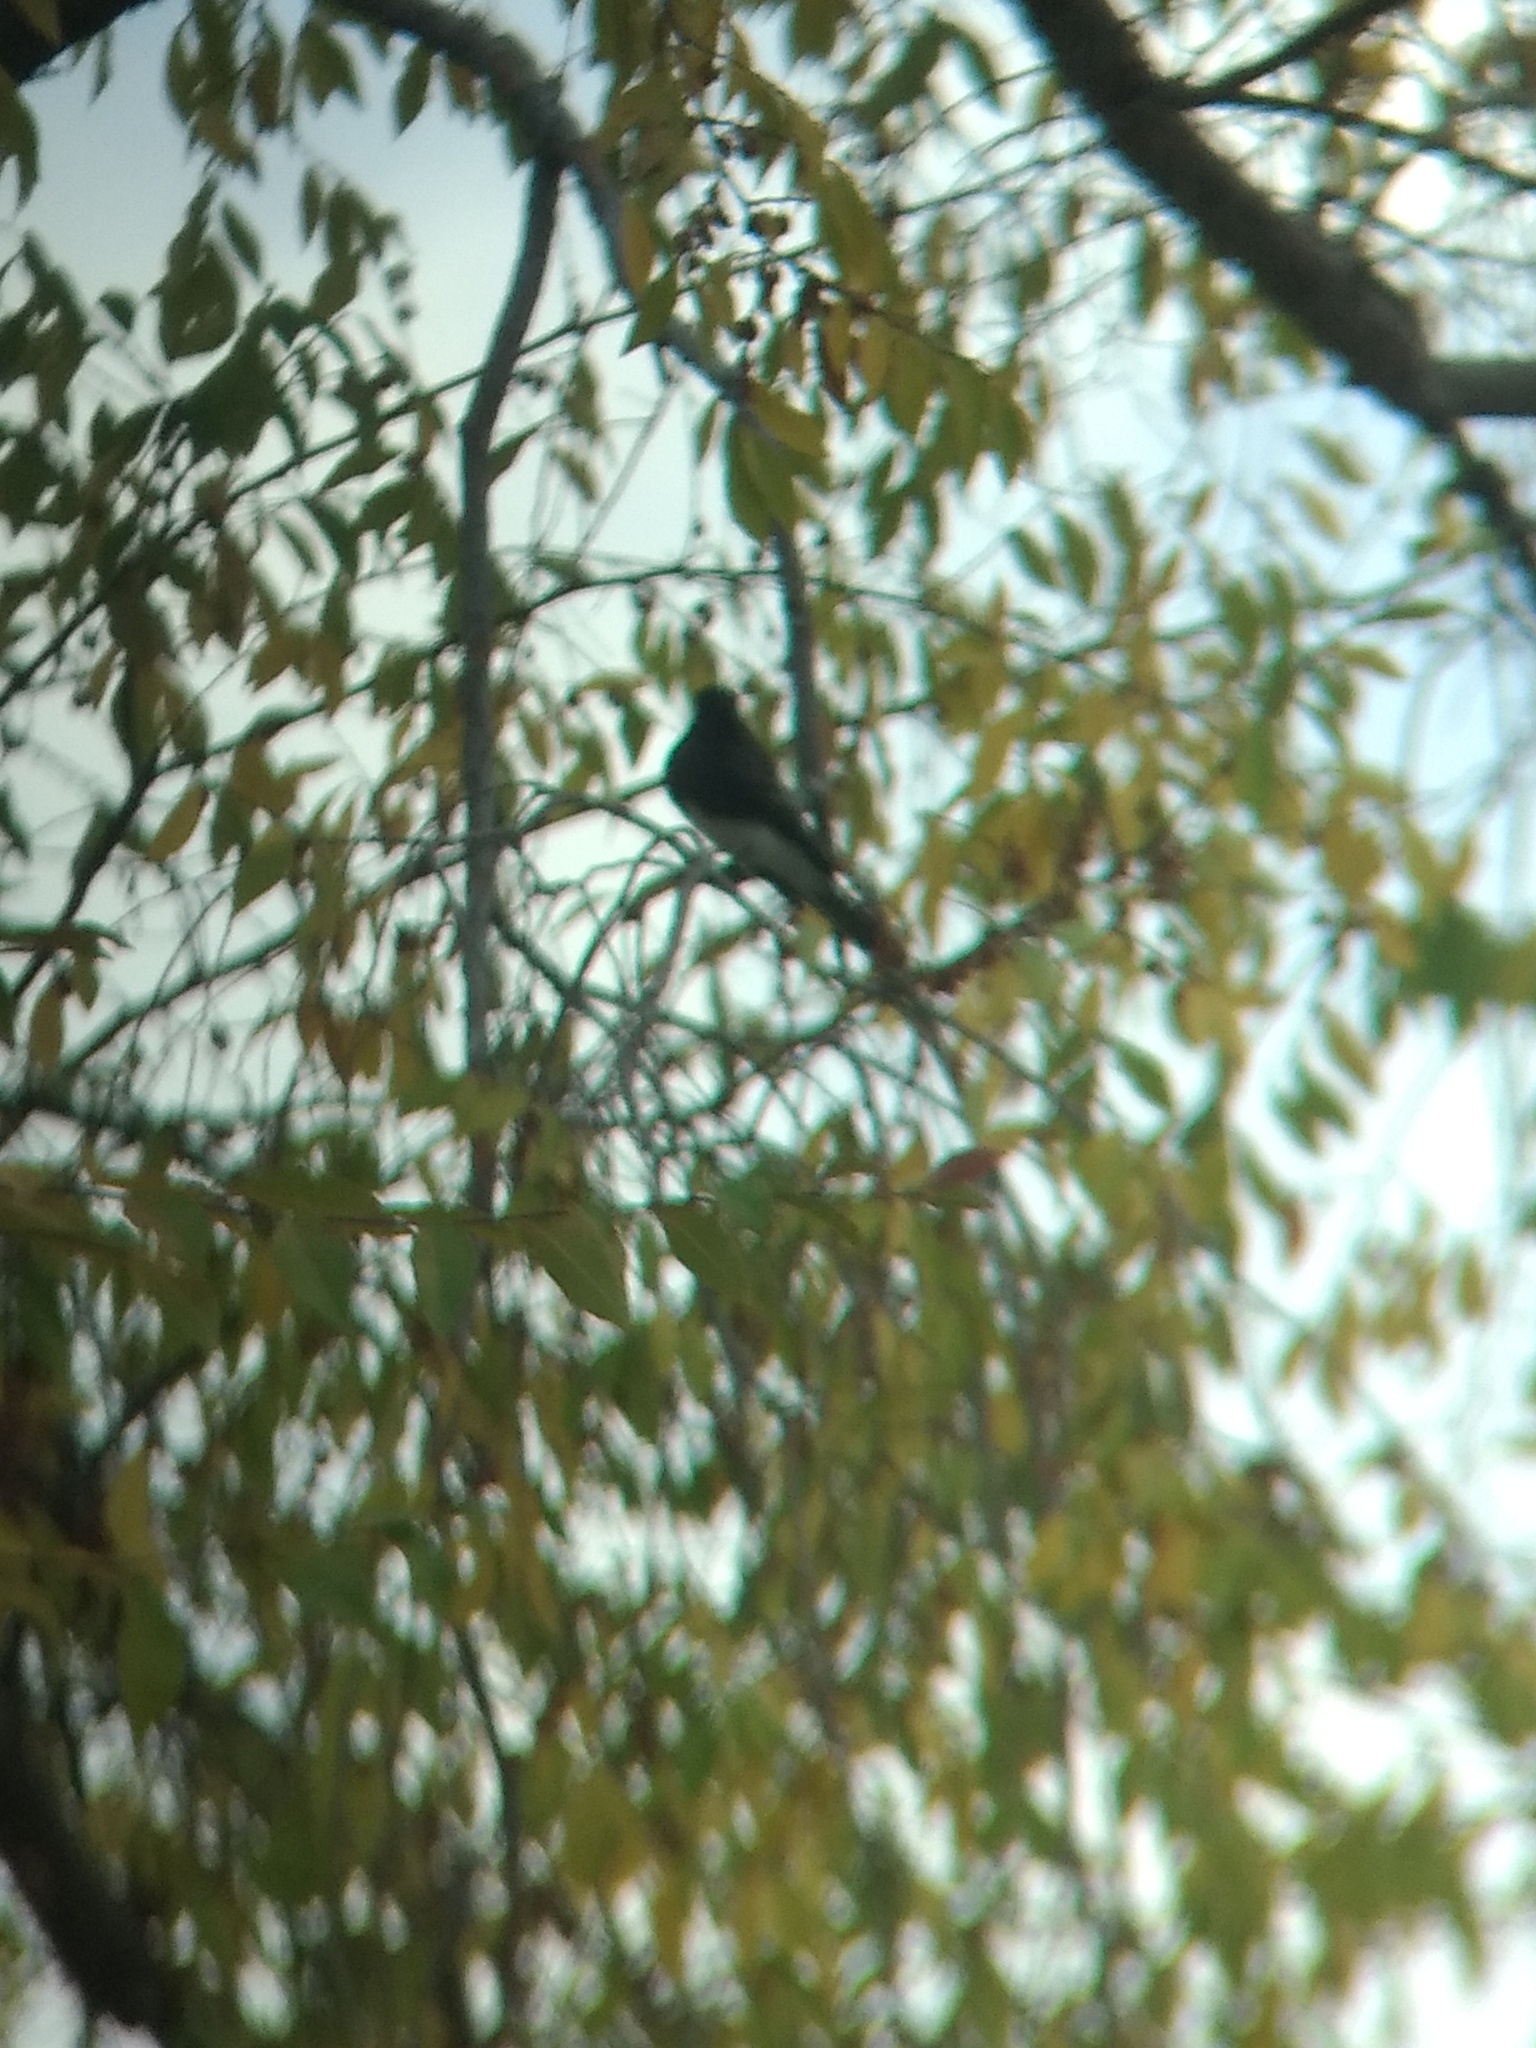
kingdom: Animalia
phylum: Chordata
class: Aves
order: Passeriformes
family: Tyrannidae
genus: Sayornis
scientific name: Sayornis nigricans
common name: Black phoebe
